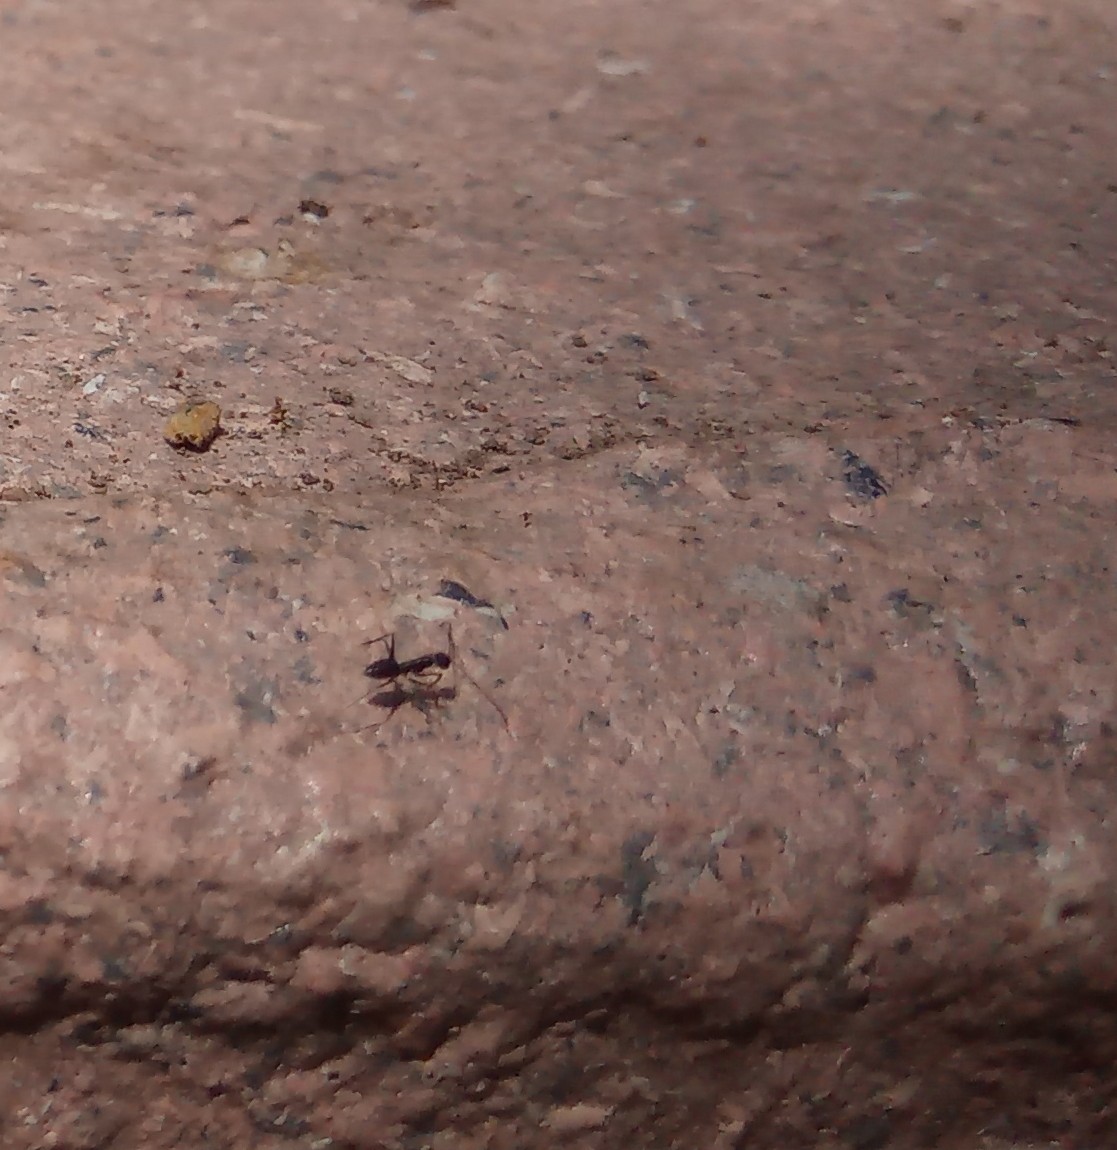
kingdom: Animalia
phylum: Arthropoda
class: Insecta
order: Hymenoptera
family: Formicidae
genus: Paratrechina
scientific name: Paratrechina longicornis
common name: Longhorned crazy ant
